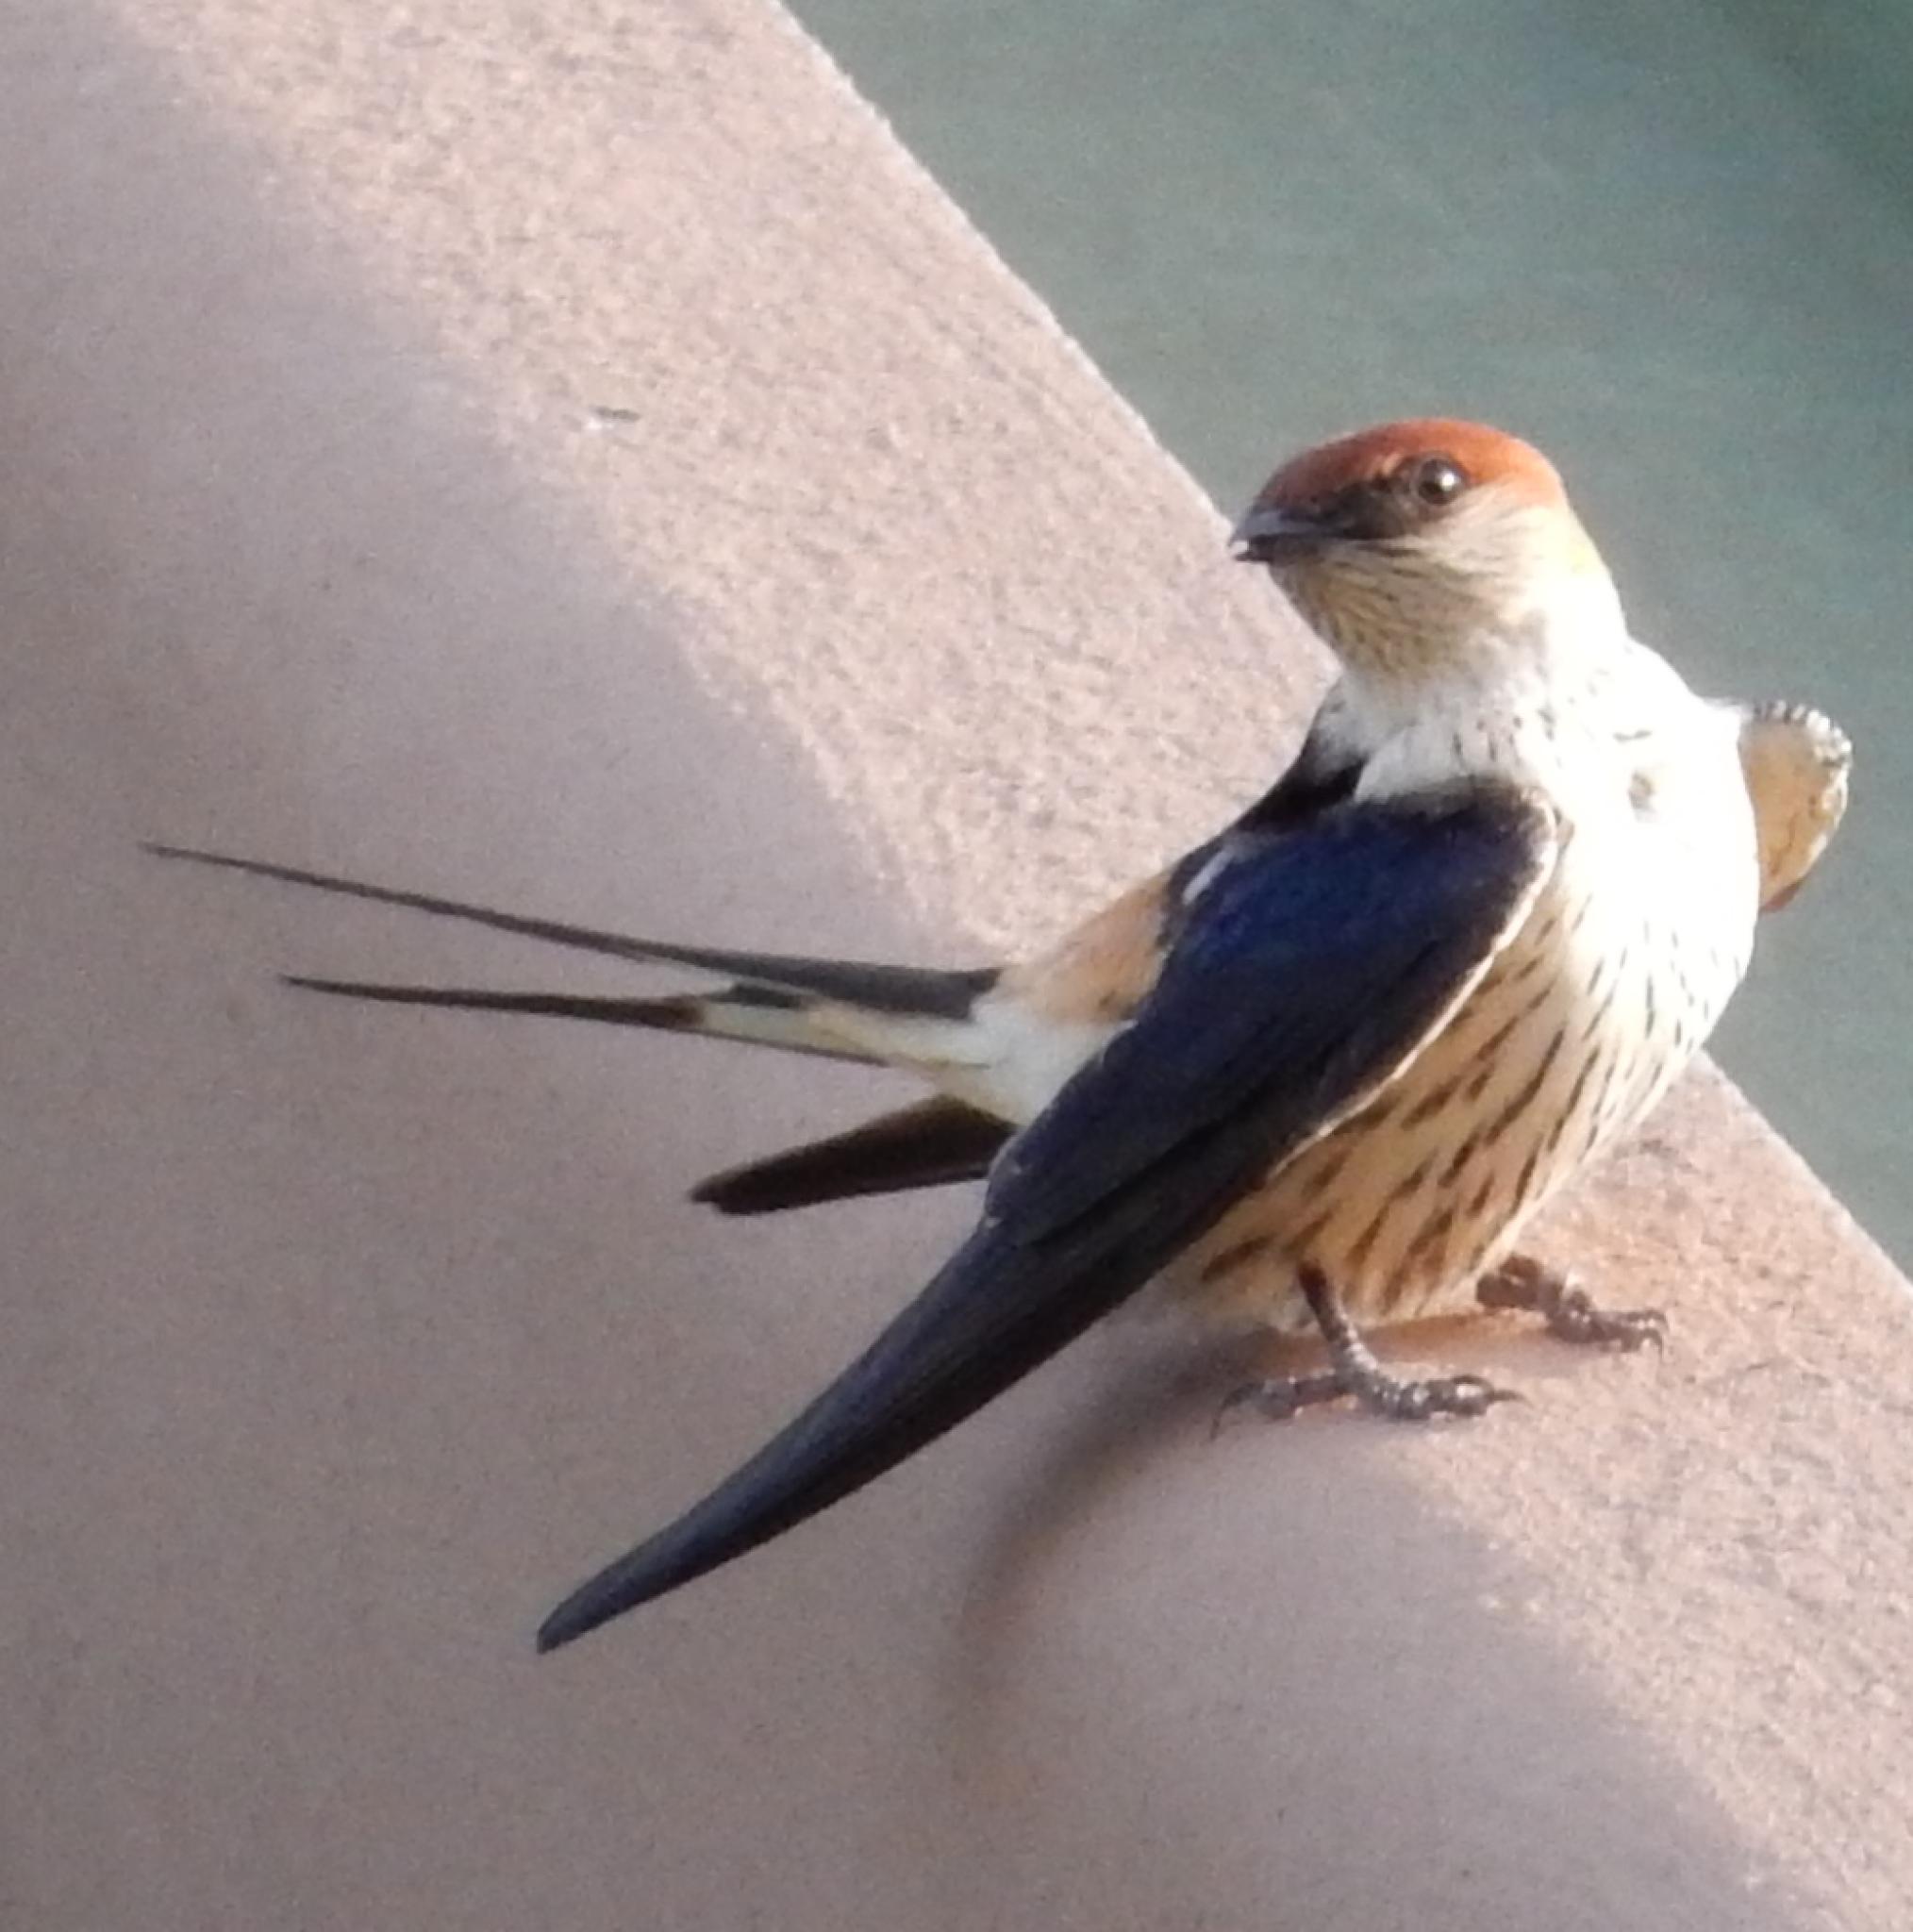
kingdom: Animalia
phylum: Chordata
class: Aves
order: Passeriformes
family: Hirundinidae
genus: Cecropis
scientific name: Cecropis cucullata
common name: Greater striped-swallow
